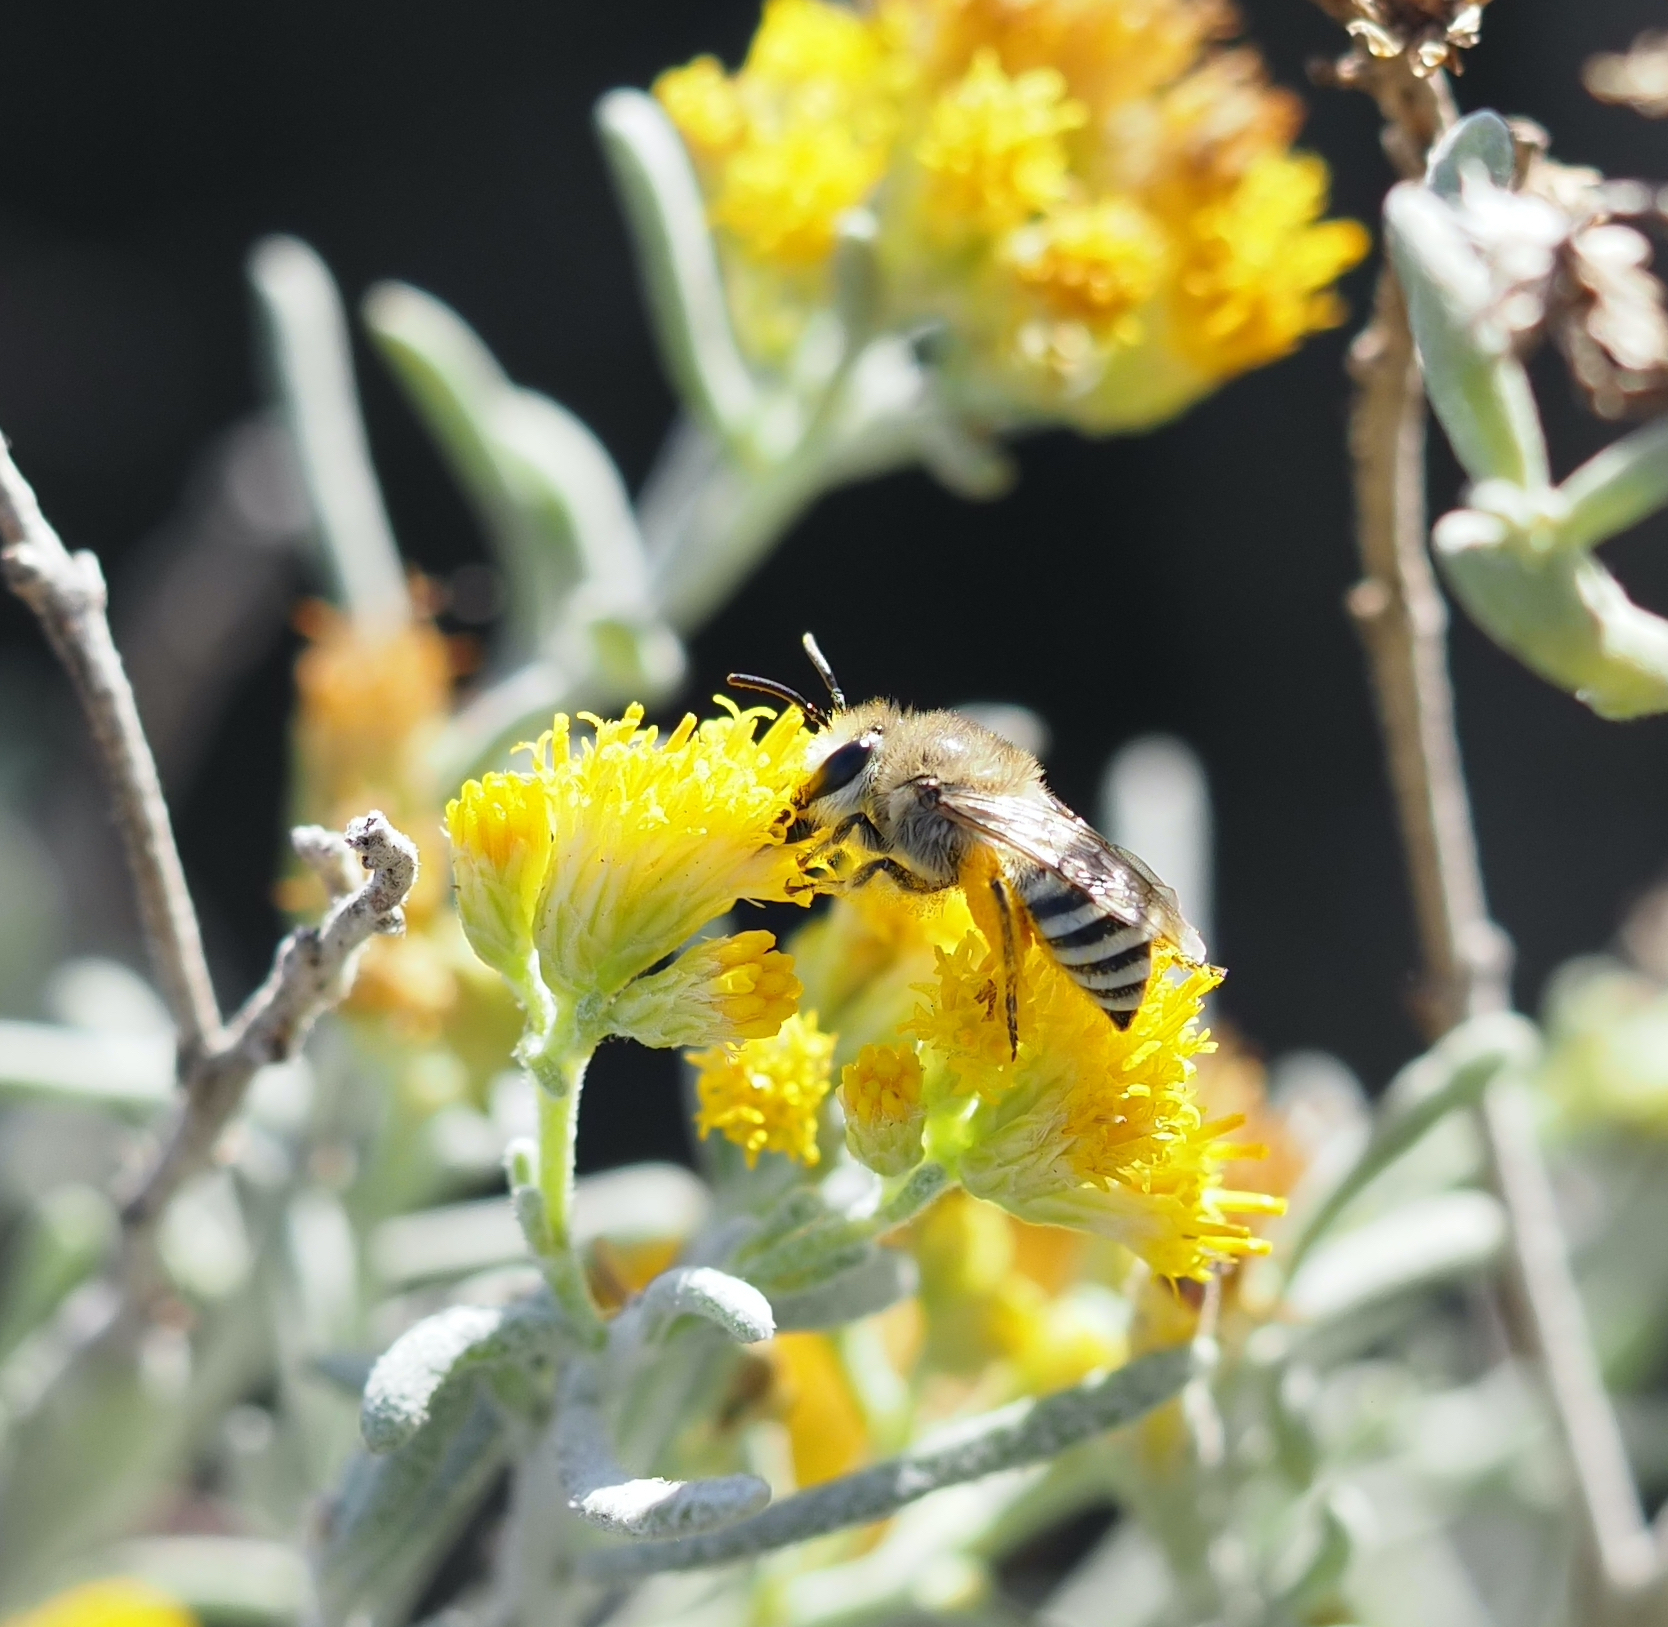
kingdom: Animalia
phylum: Arthropoda
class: Insecta
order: Hymenoptera
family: Colletidae
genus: Colletes
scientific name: Colletes moricei
